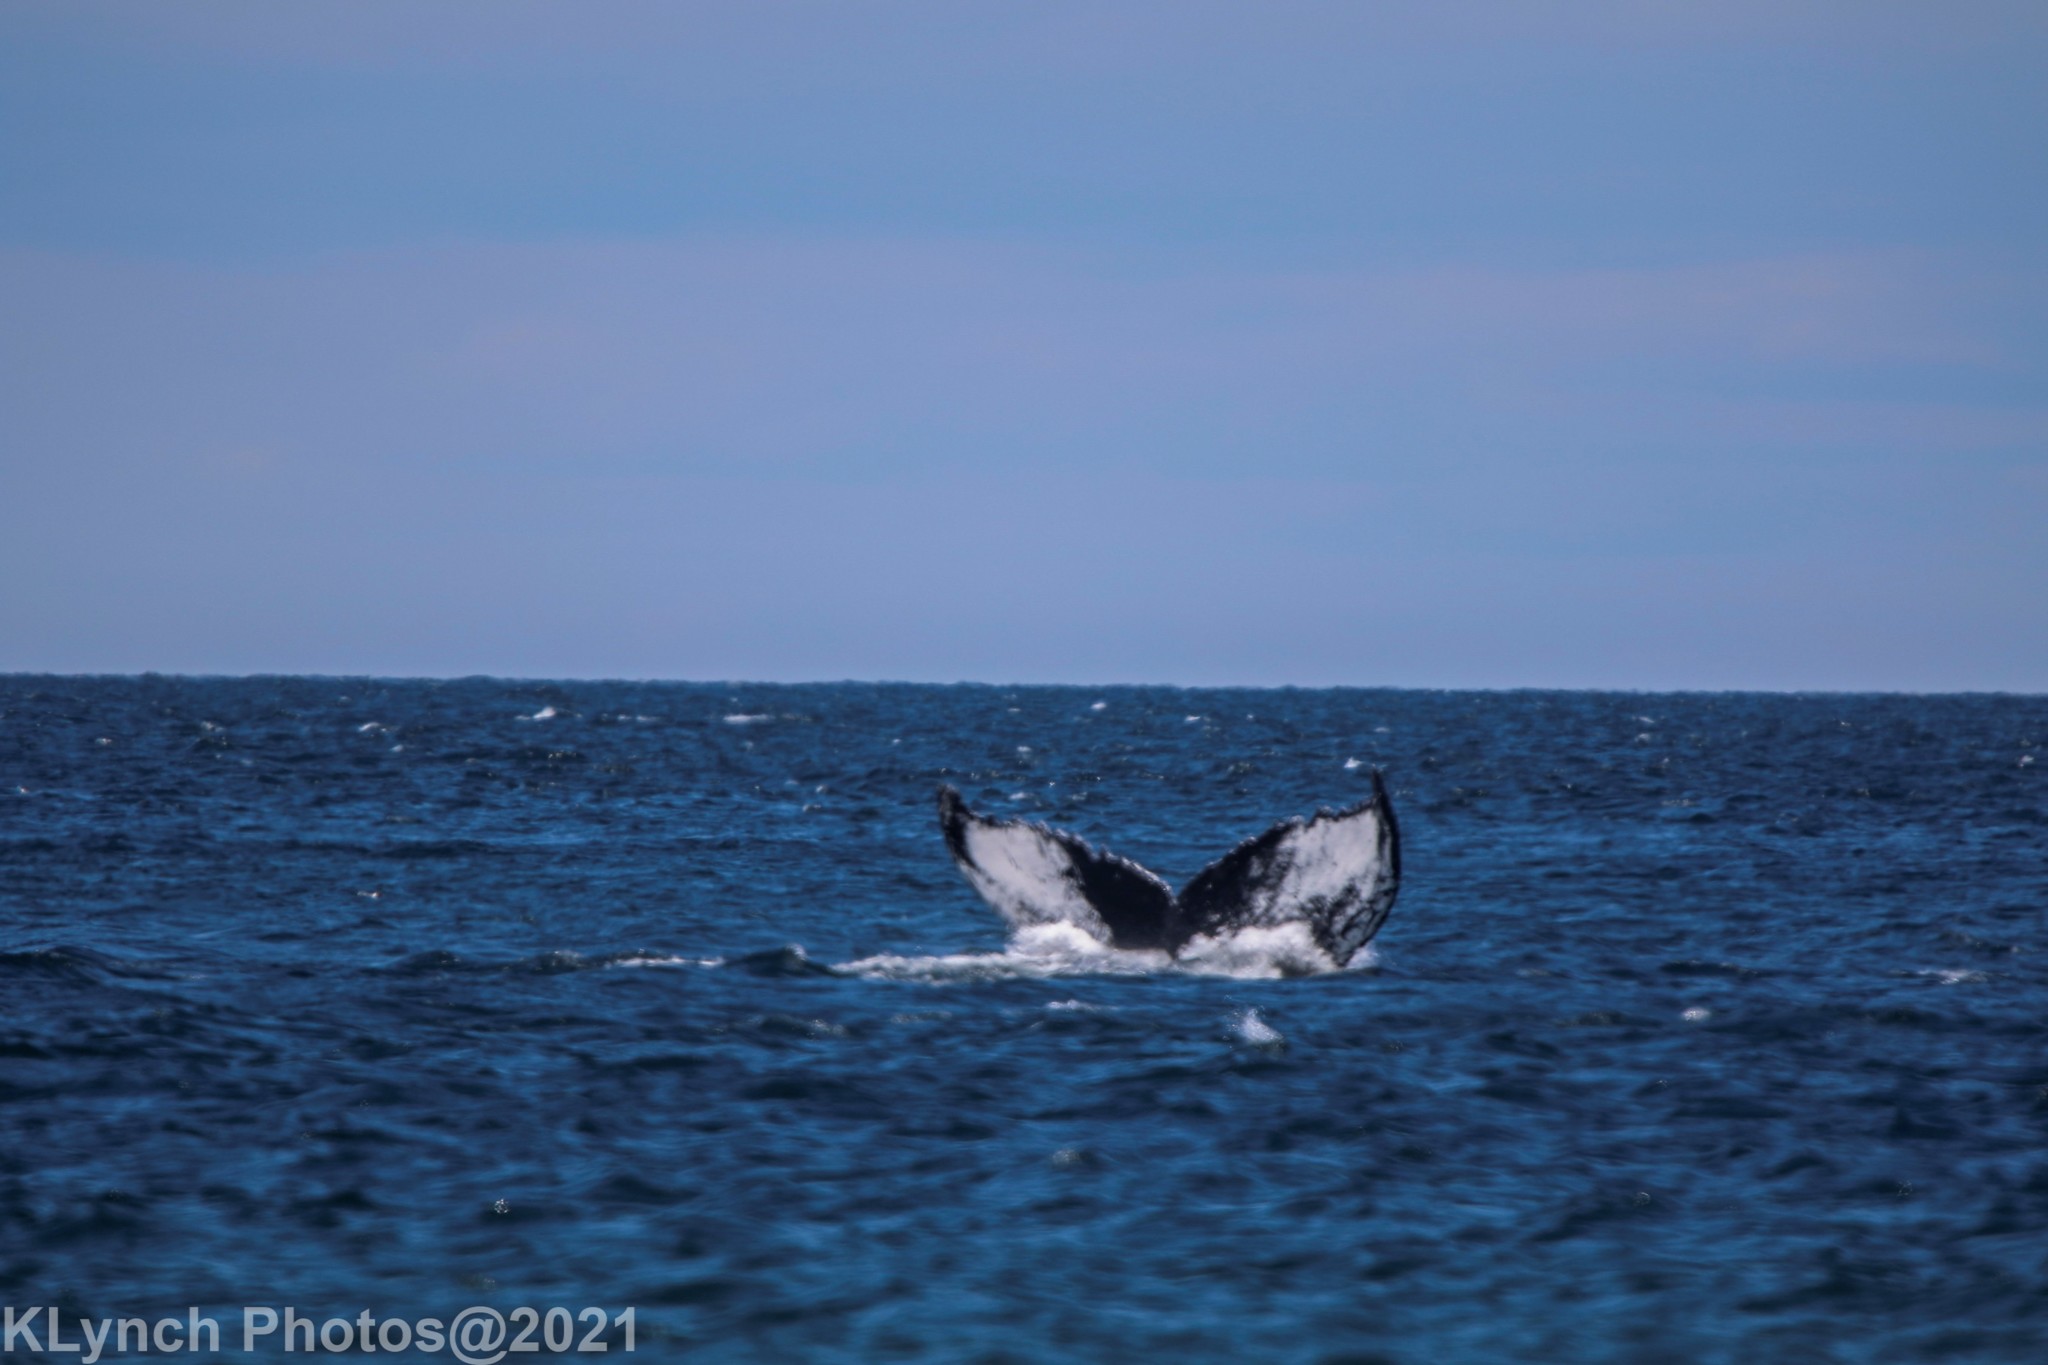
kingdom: Animalia
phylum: Chordata
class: Mammalia
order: Cetacea
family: Balaenopteridae
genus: Megaptera
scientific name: Megaptera novaeangliae
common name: Humpback whale
